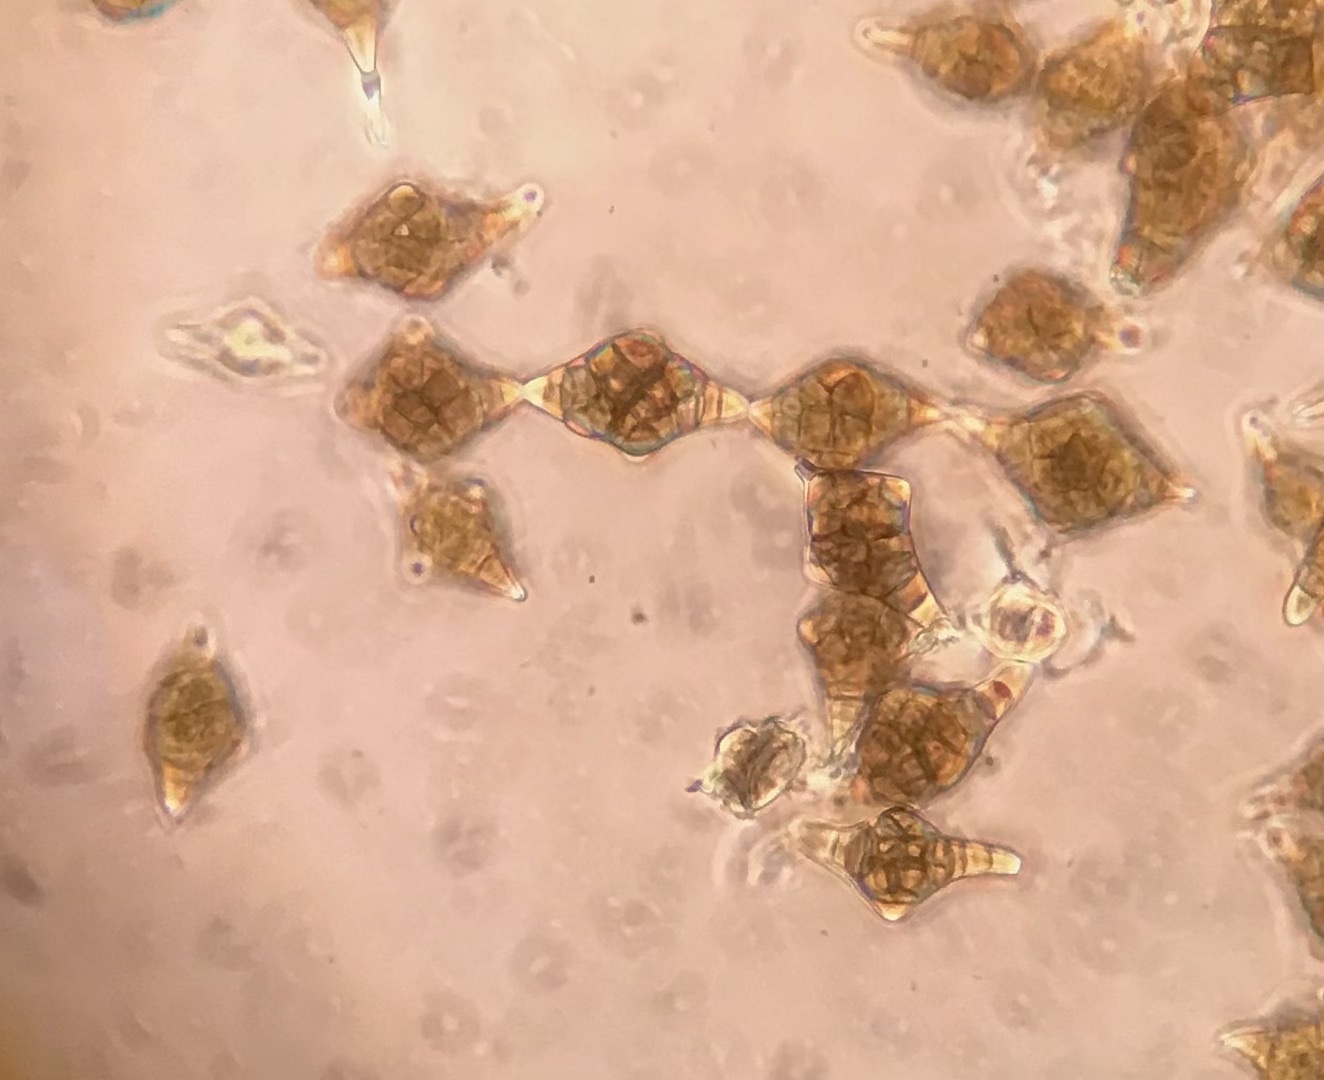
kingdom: Fungi
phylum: Ascomycota
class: Dothideomycetes
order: Pleosporales
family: Melanommataceae
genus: Phragmotrichum
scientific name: Phragmotrichum
